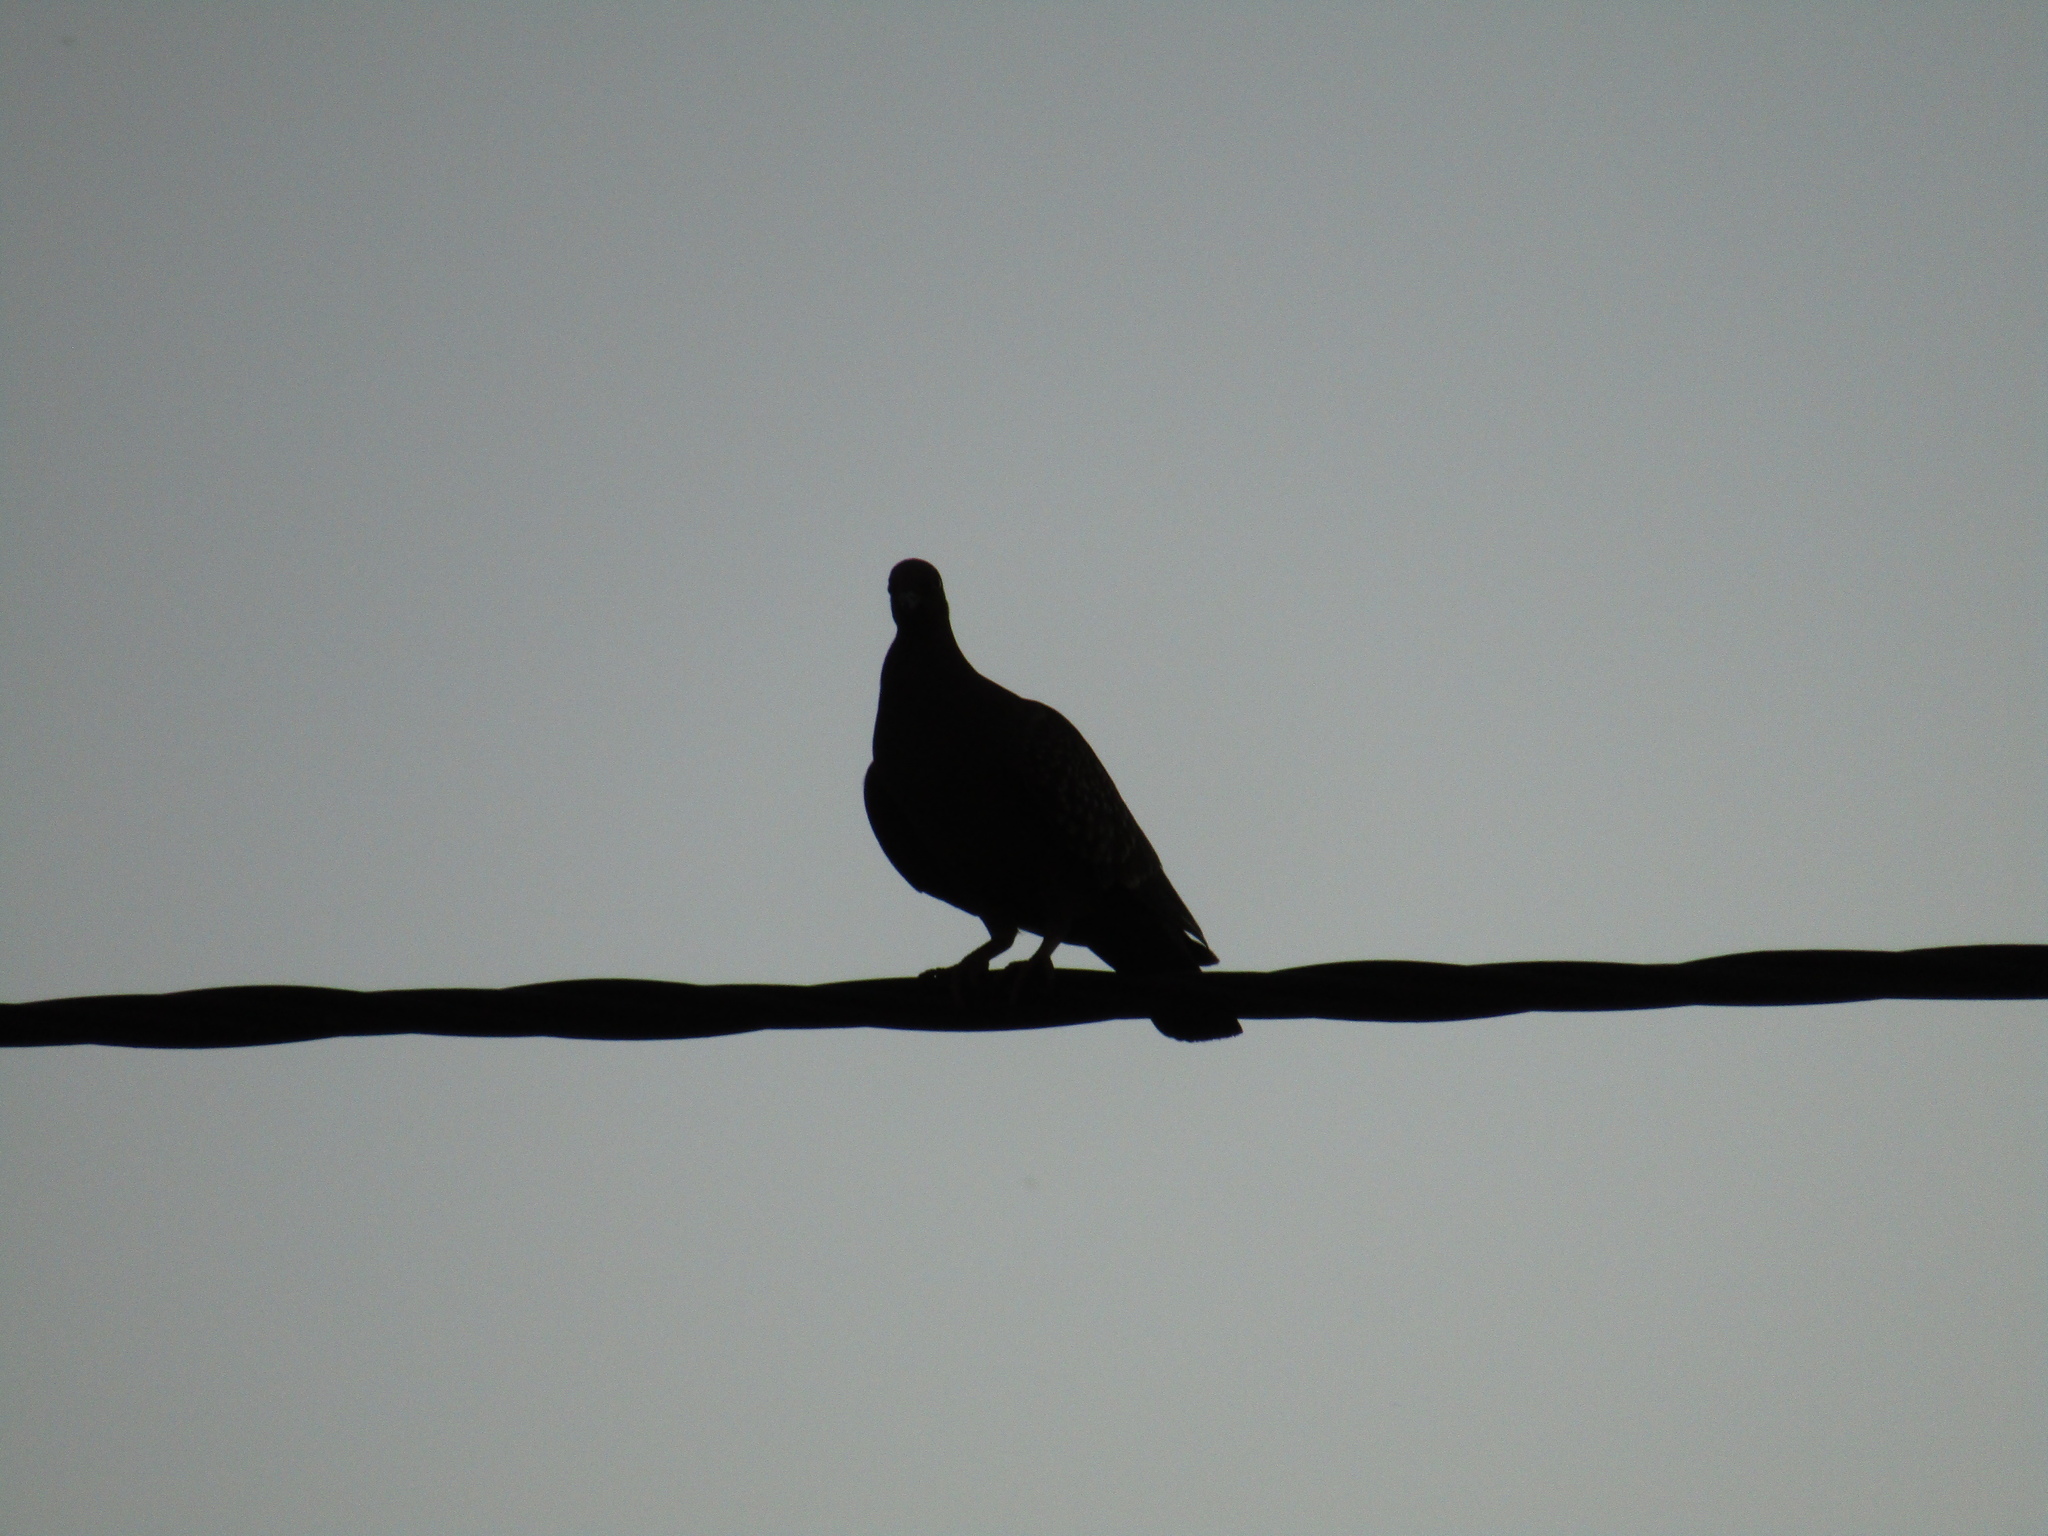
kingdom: Animalia
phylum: Chordata
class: Aves
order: Columbiformes
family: Columbidae
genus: Patagioenas
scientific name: Patagioenas maculosa
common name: Spot-winged pigeon
